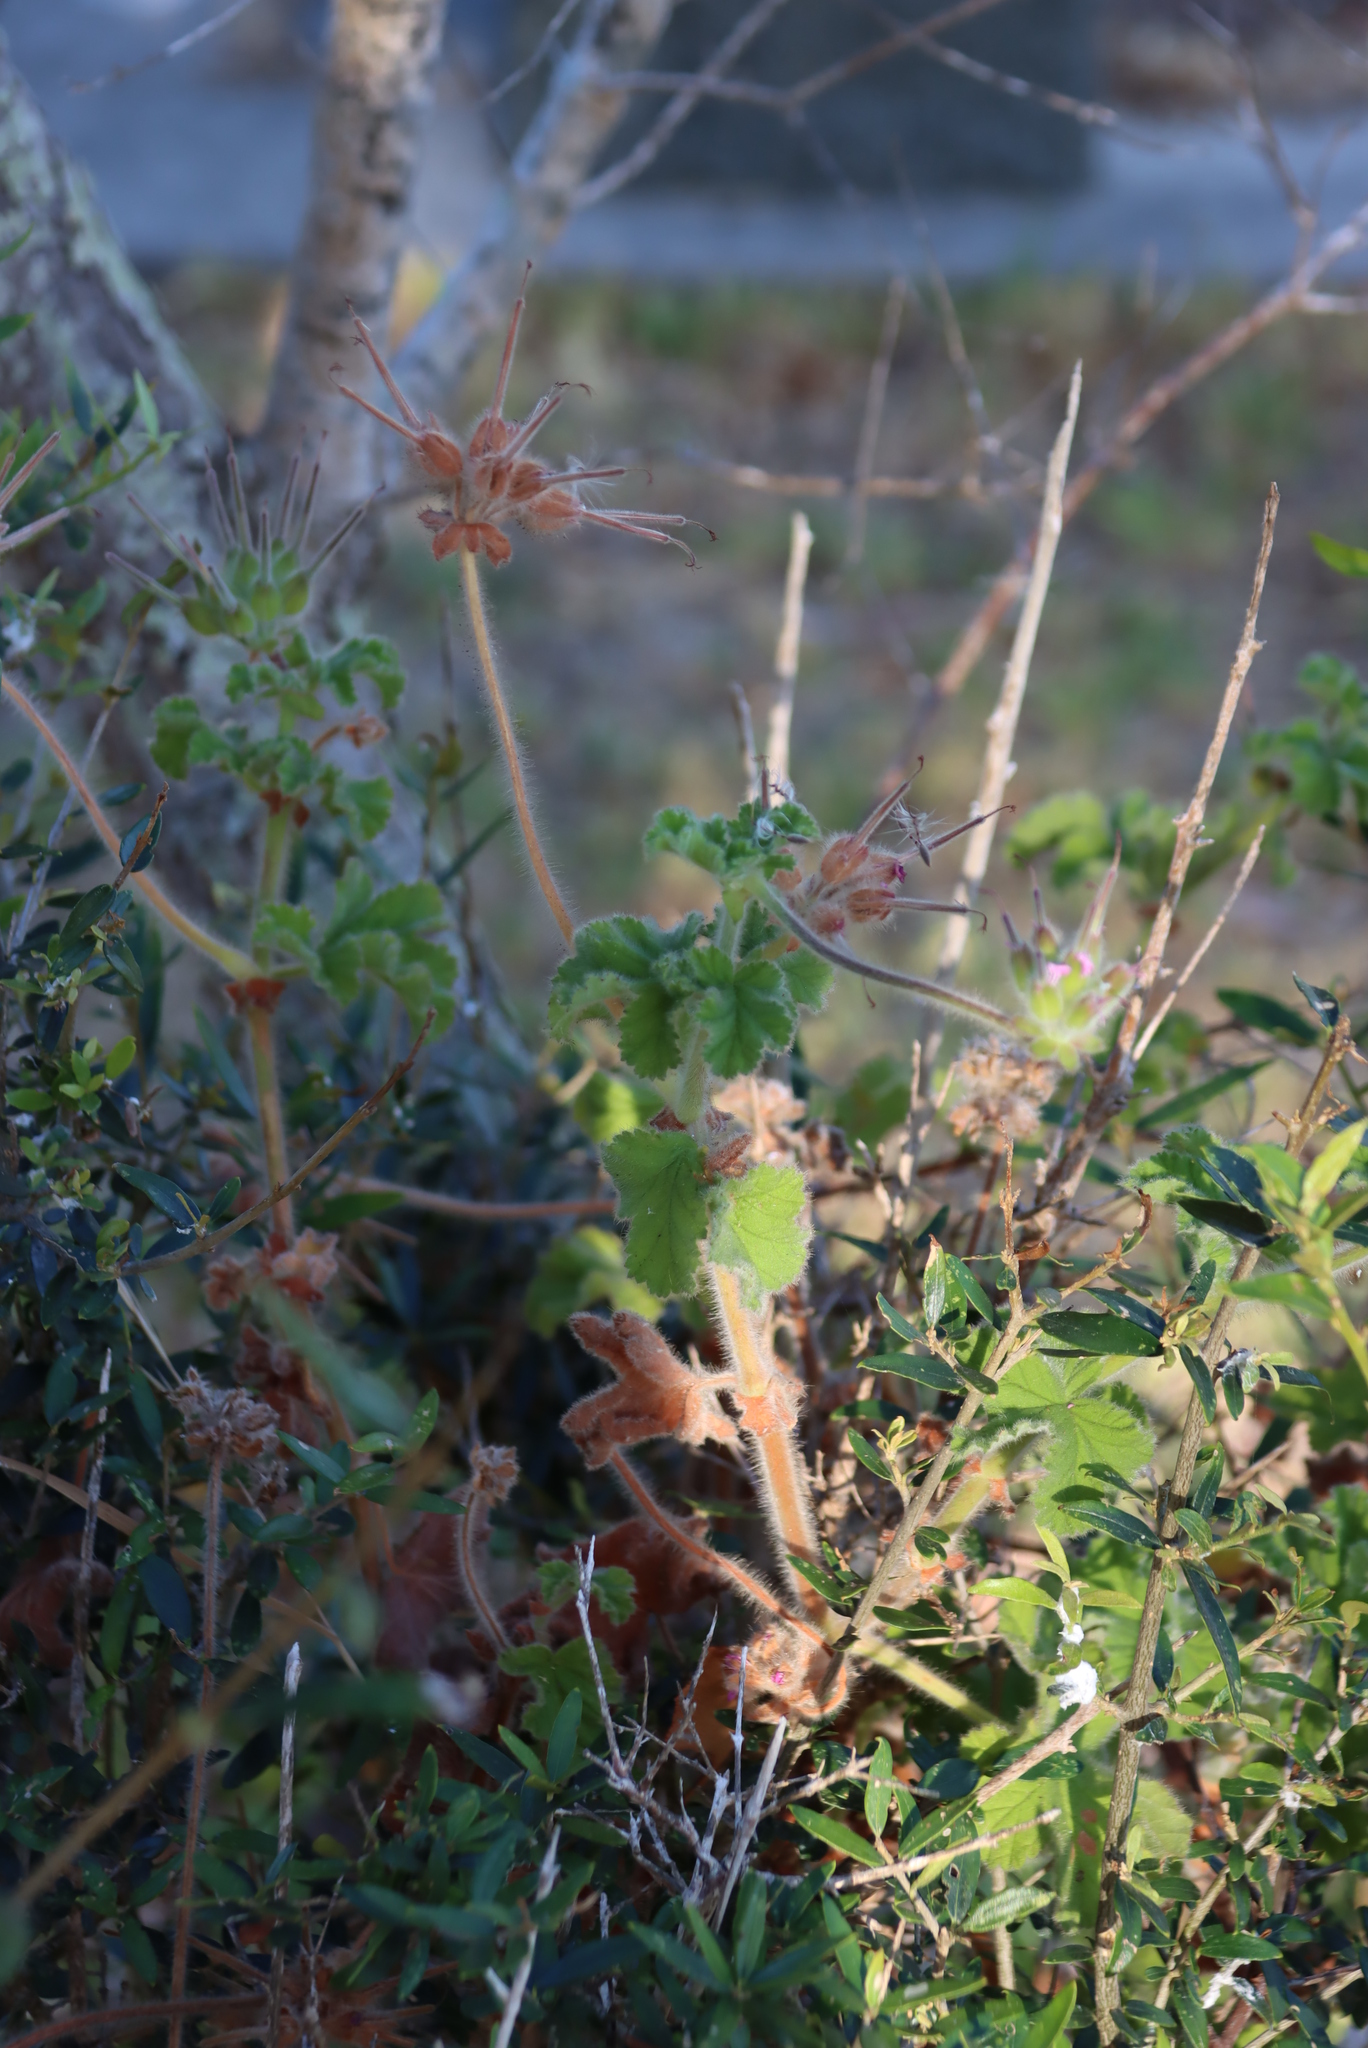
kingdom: Plantae
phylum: Tracheophyta
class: Magnoliopsida
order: Geraniales
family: Geraniaceae
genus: Pelargonium
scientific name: Pelargonium capitatum
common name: Rose scented geranium
